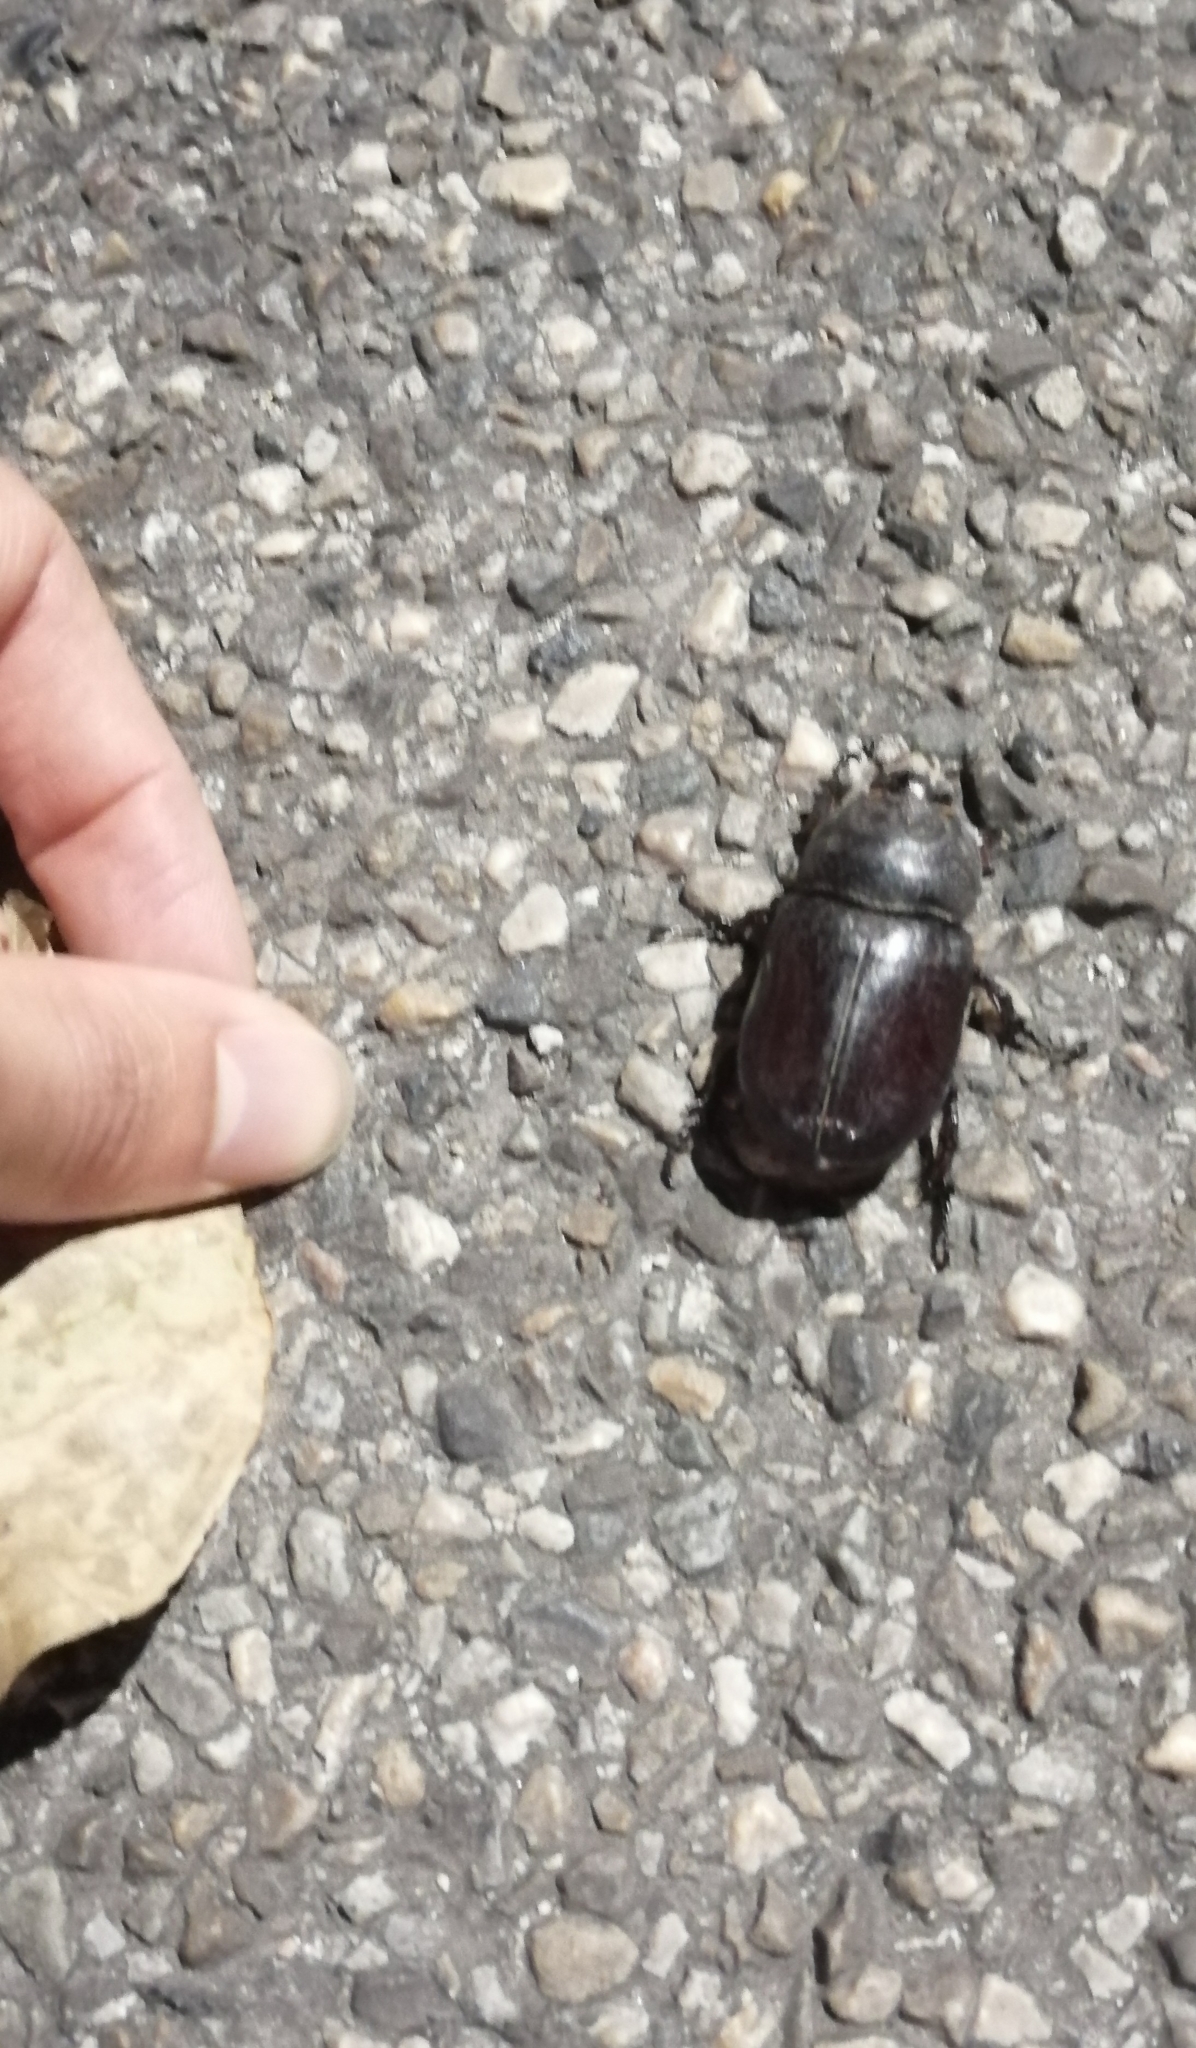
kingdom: Animalia
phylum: Arthropoda
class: Insecta
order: Coleoptera
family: Scarabaeidae
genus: Oryctes
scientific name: Oryctes nasicornis
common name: European rhinoceros beetle
